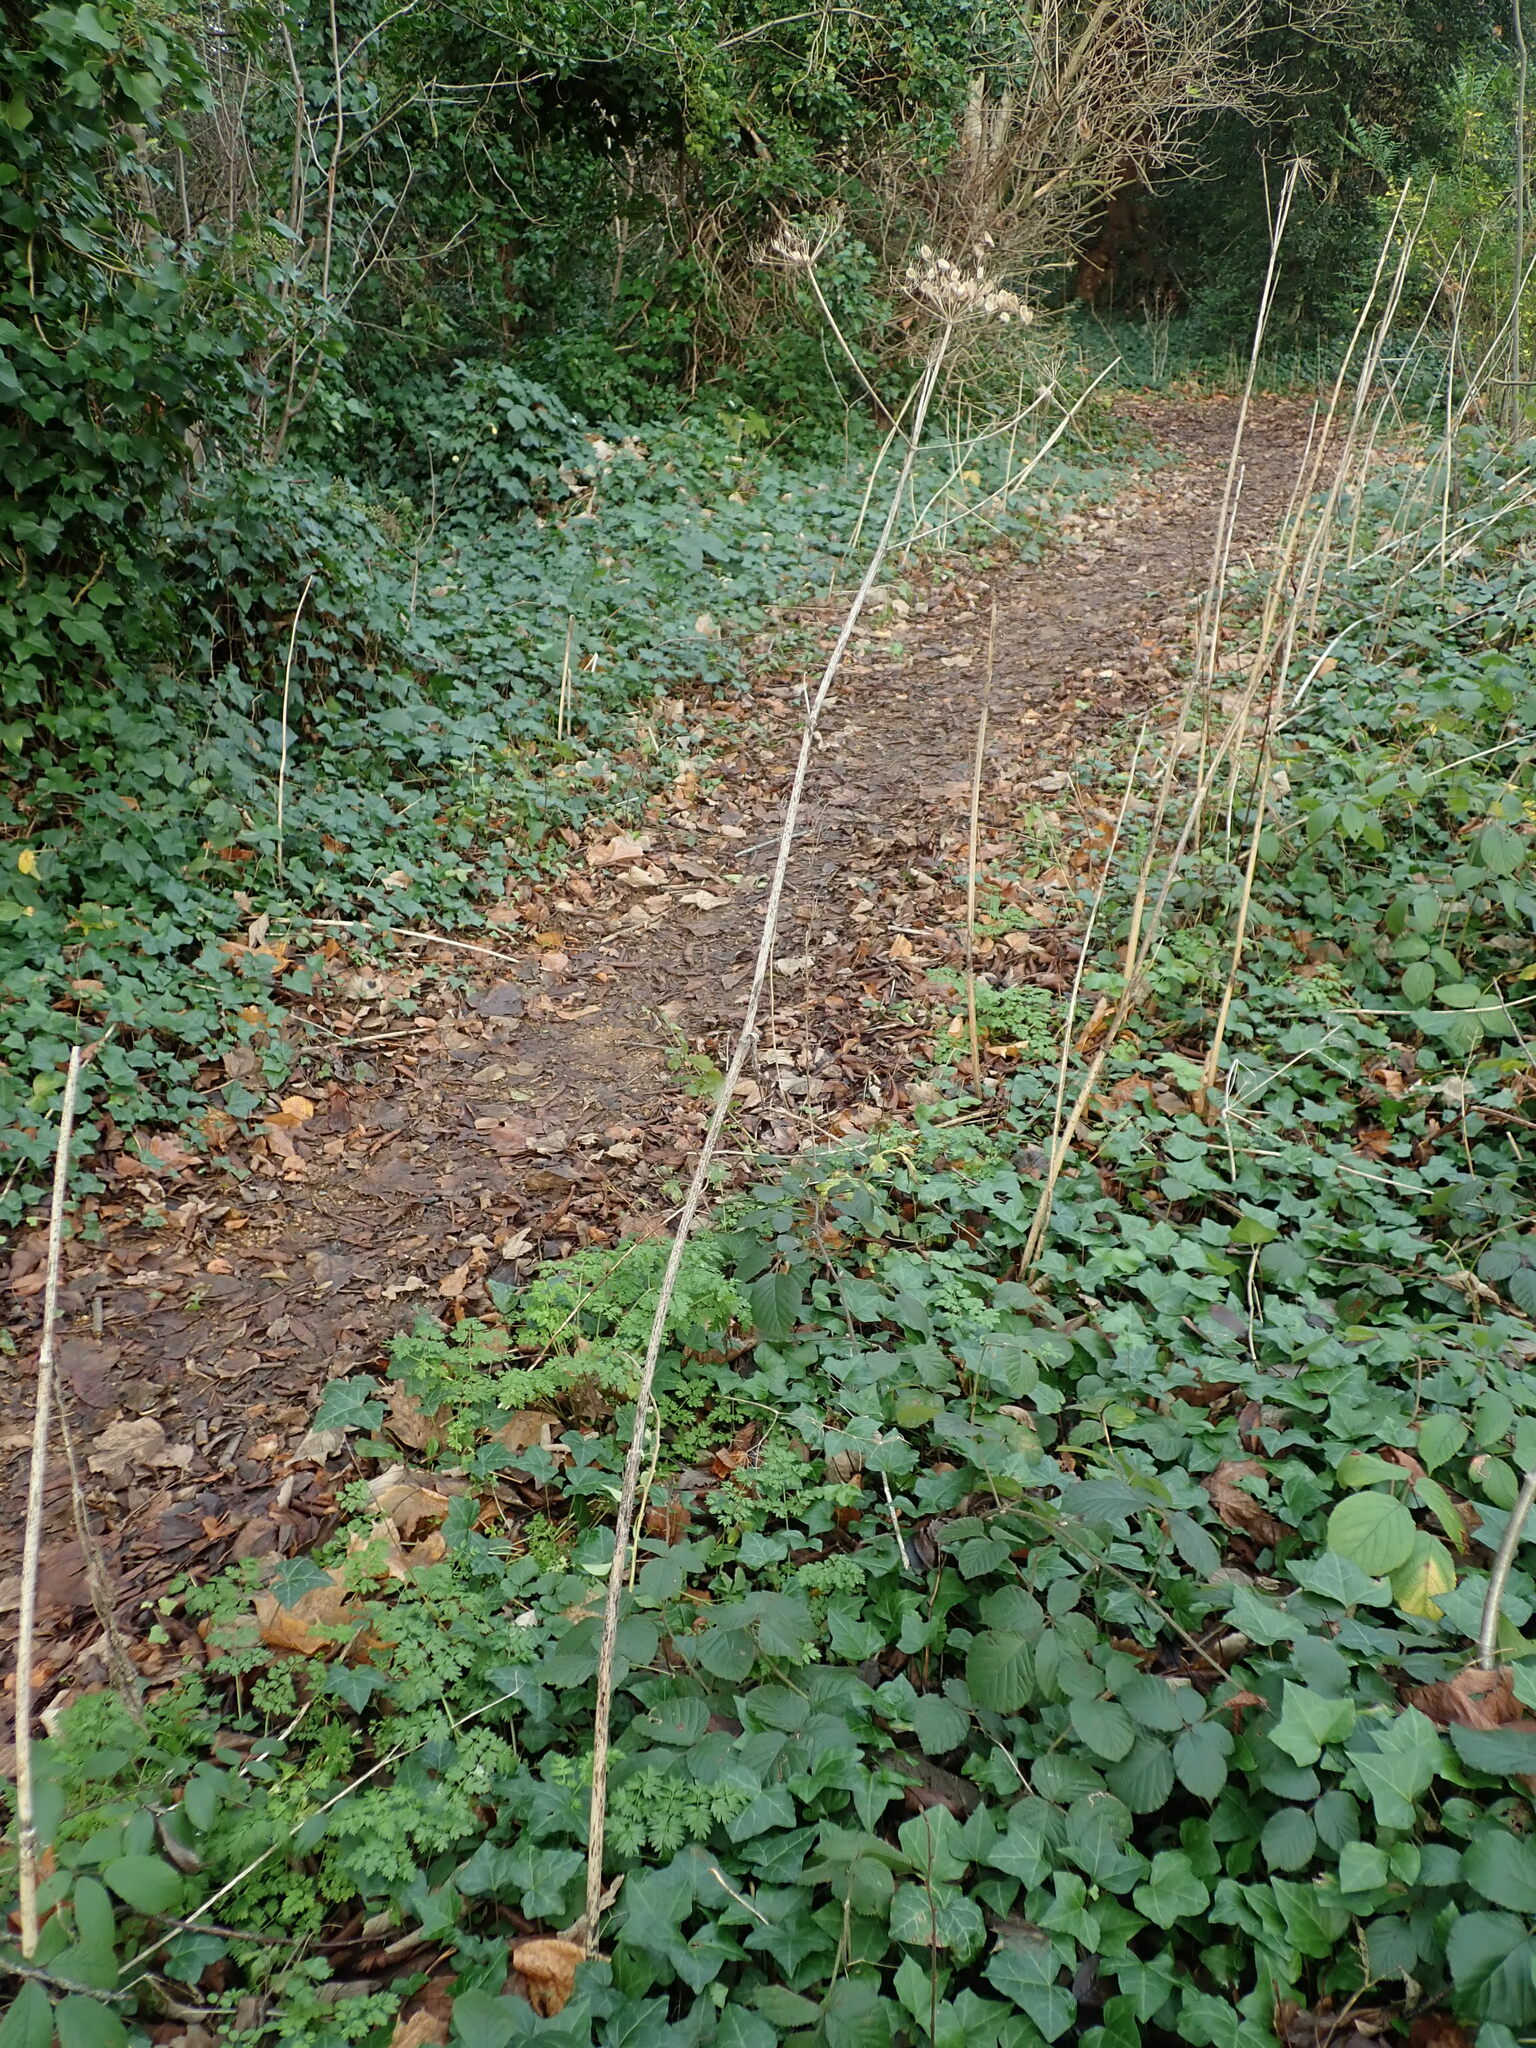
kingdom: Plantae
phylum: Tracheophyta
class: Magnoliopsida
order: Apiales
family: Apiaceae
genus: Heracleum
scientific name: Heracleum sphondylium
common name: Hogweed
